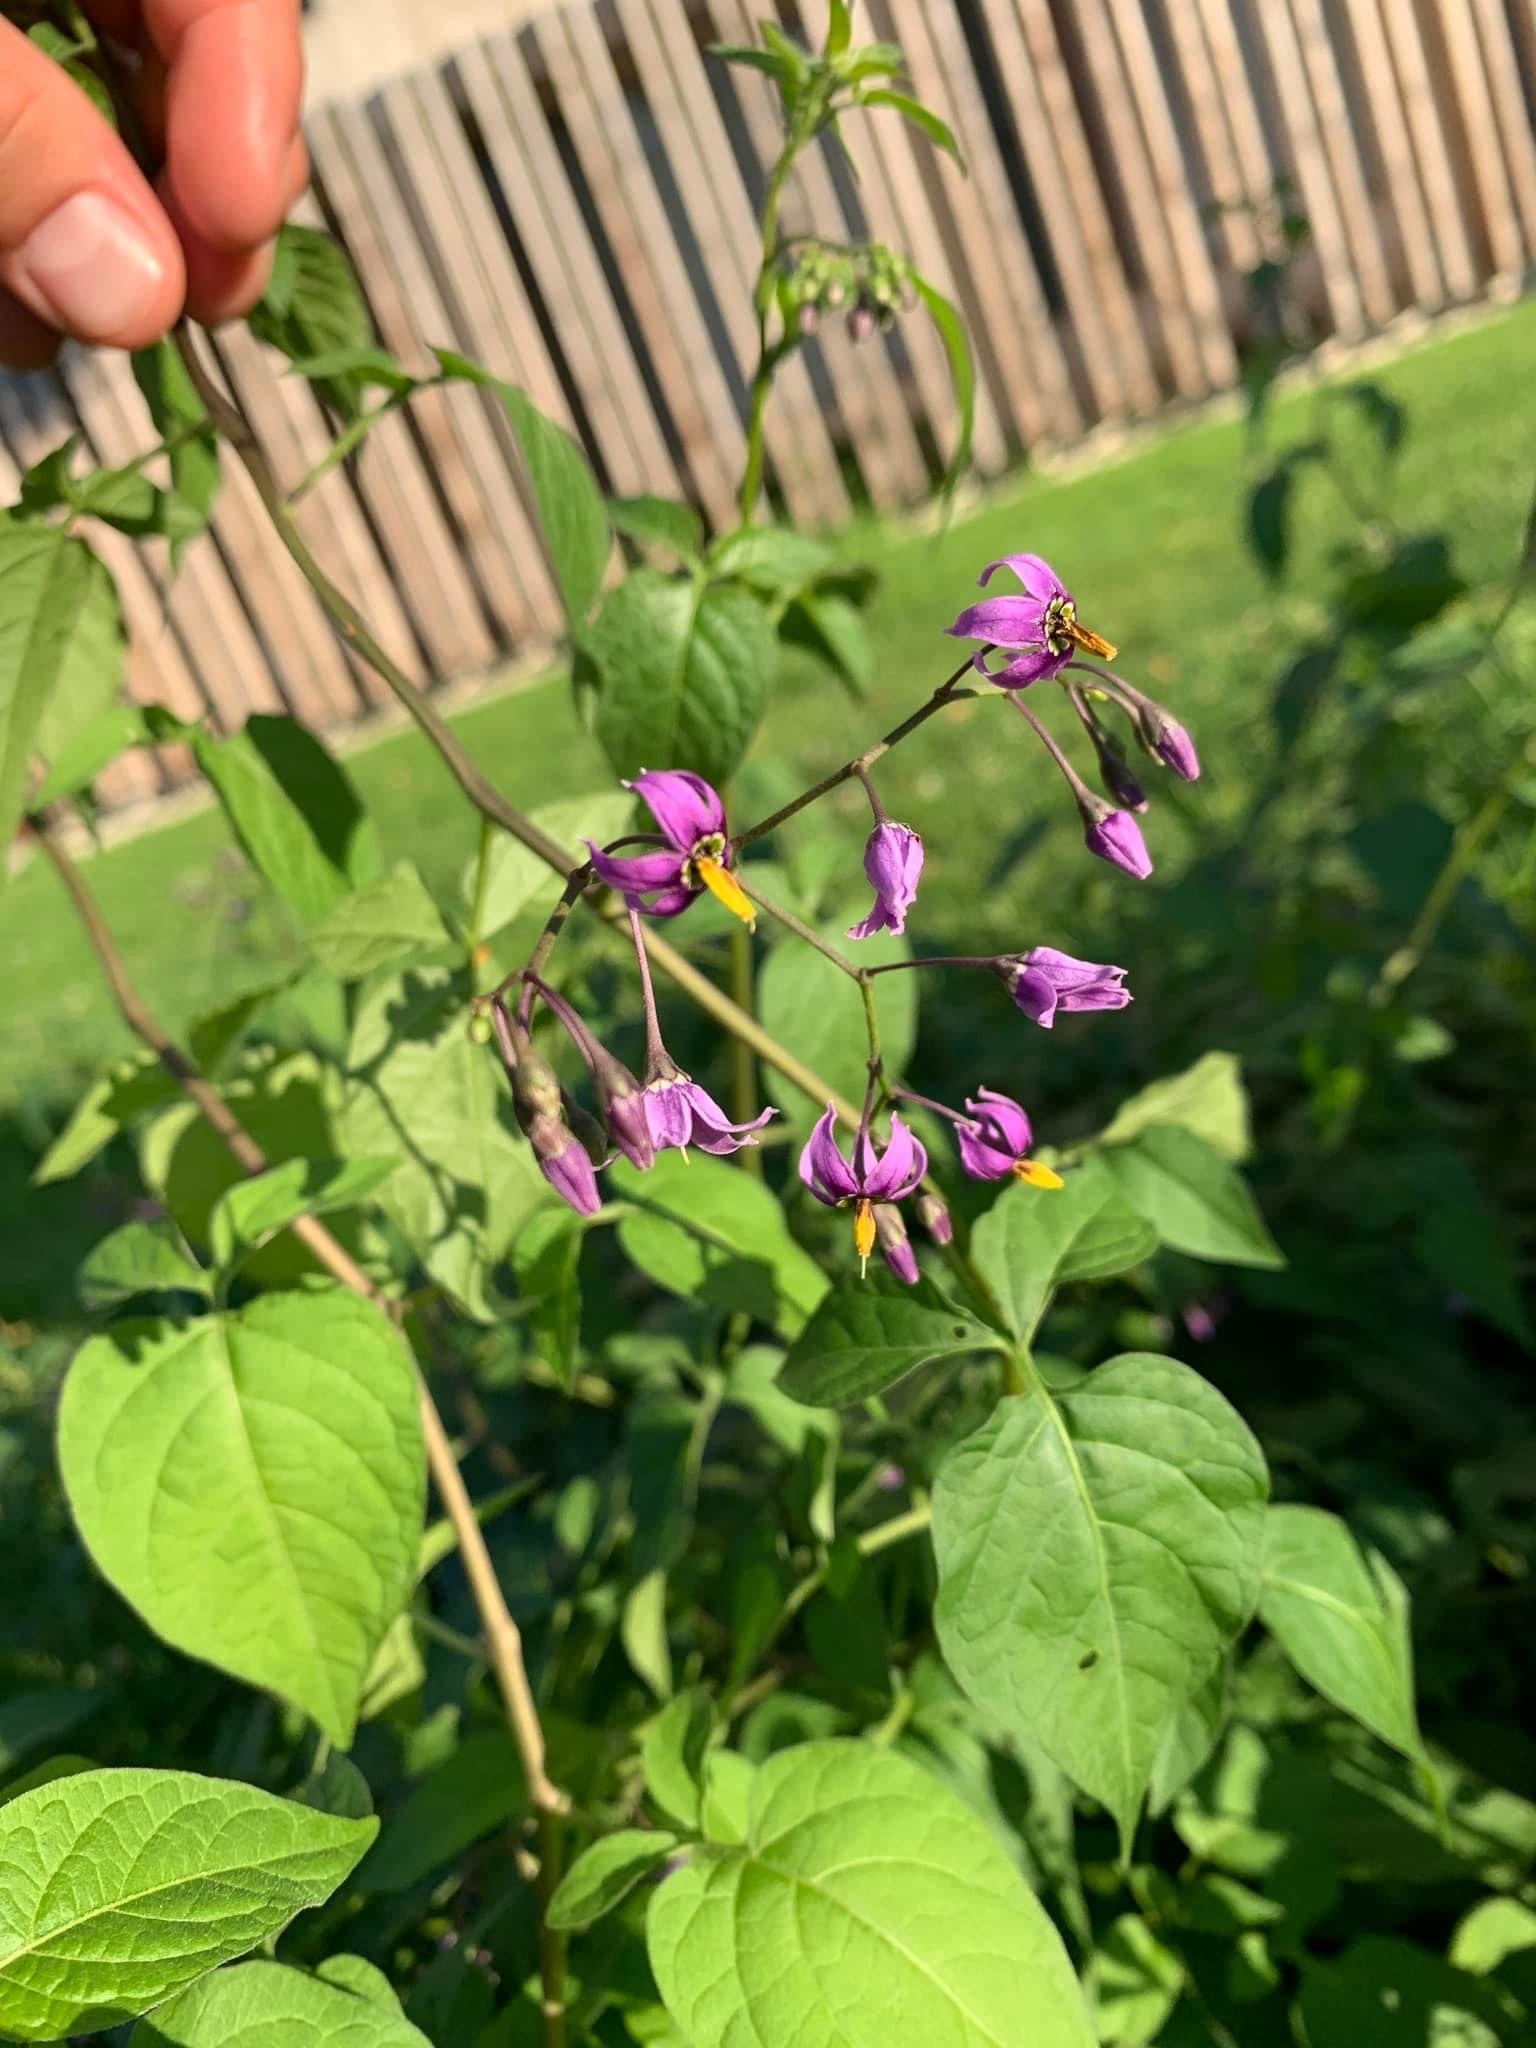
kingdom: Plantae
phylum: Tracheophyta
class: Magnoliopsida
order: Solanales
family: Solanaceae
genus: Solanum
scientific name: Solanum dulcamara
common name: Climbing nightshade
